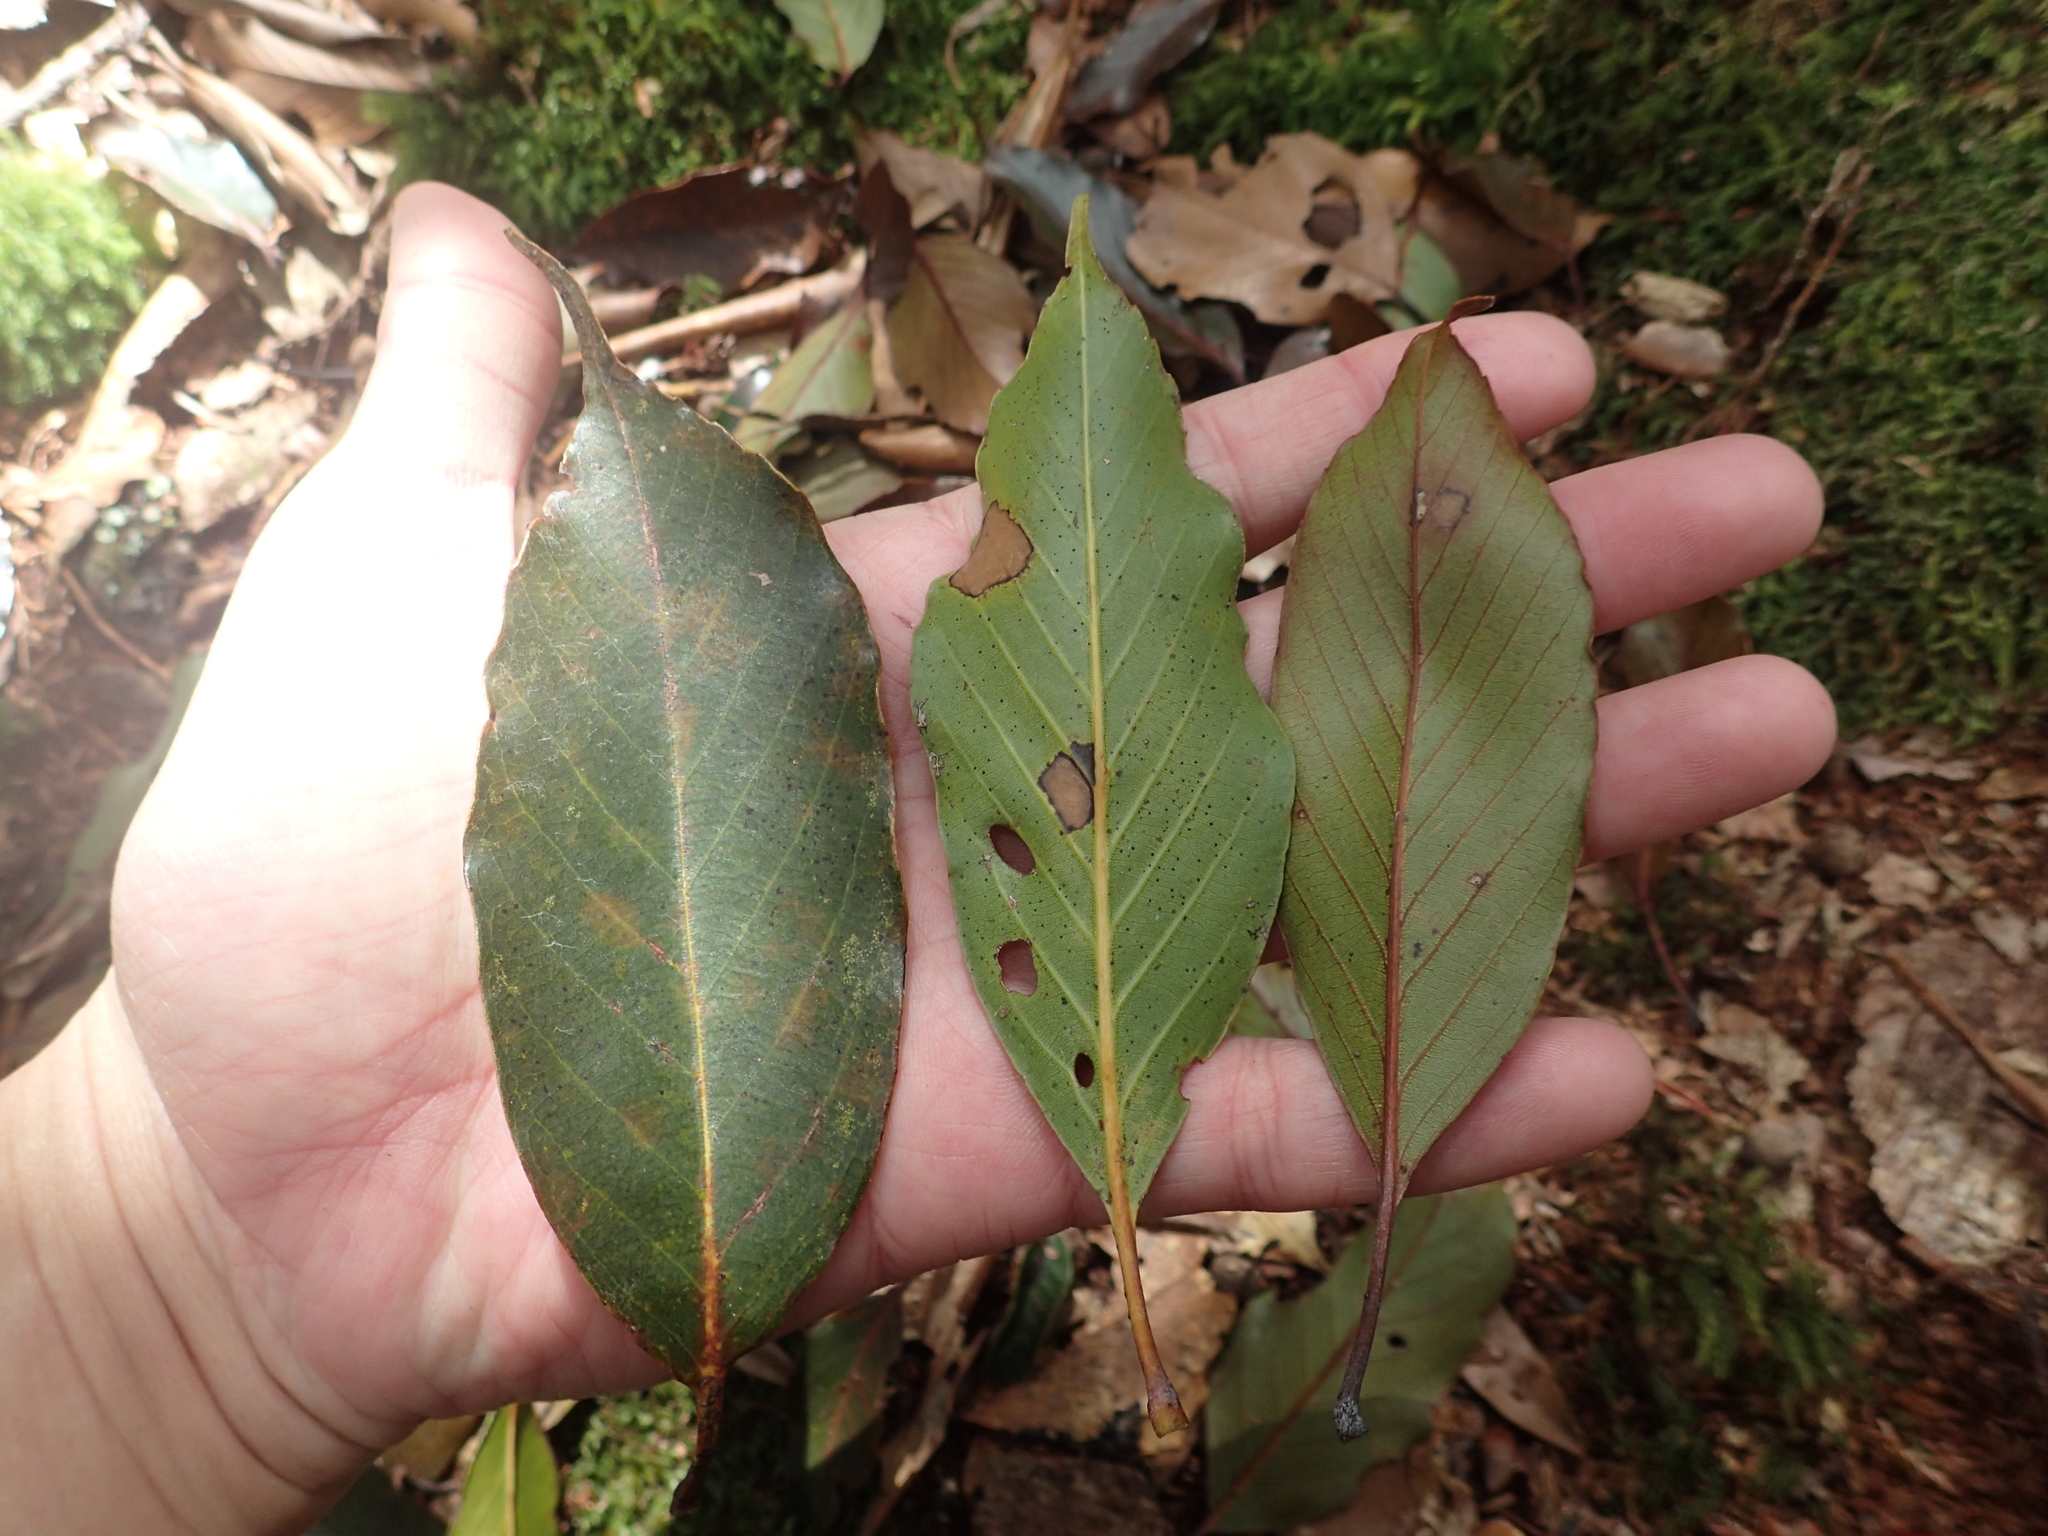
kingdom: Plantae
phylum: Tracheophyta
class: Magnoliopsida
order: Fagales
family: Fagaceae
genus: Quercus
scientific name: Quercus morii
